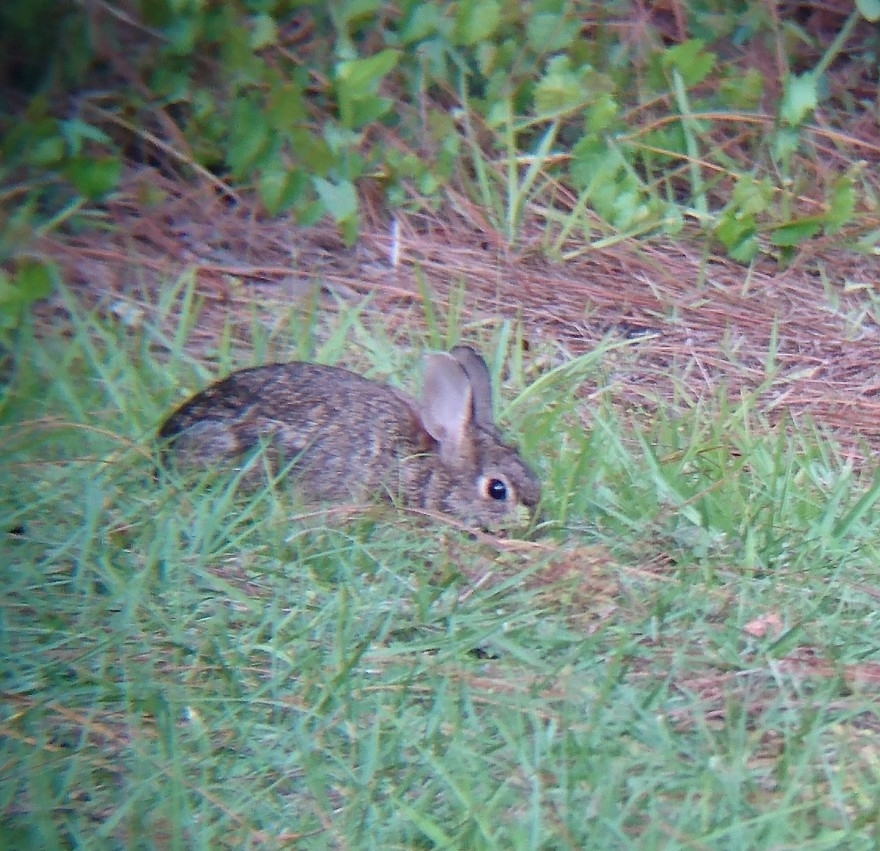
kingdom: Animalia
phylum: Chordata
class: Mammalia
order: Lagomorpha
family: Leporidae
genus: Sylvilagus
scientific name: Sylvilagus floridanus
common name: Eastern cottontail
